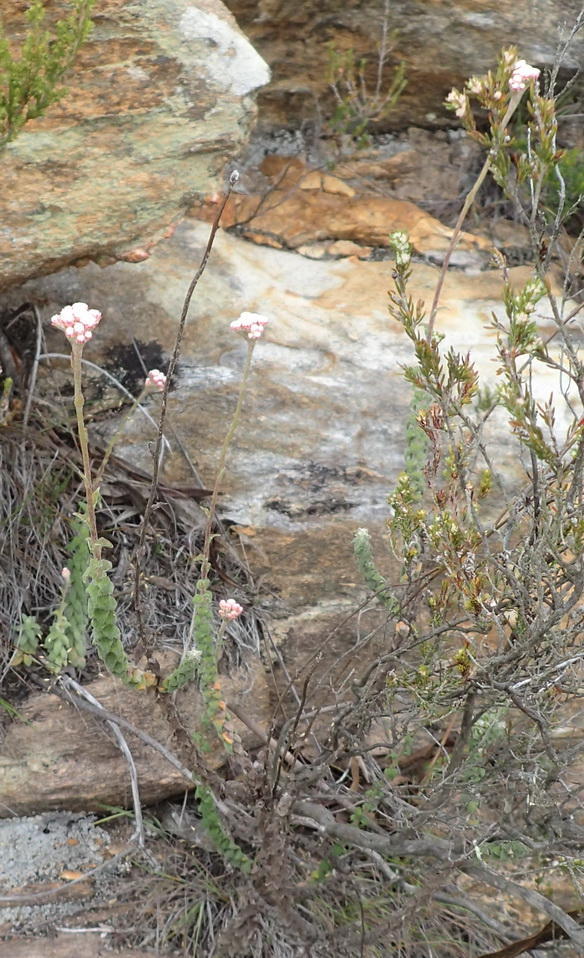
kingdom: Plantae
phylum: Tracheophyta
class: Magnoliopsida
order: Asterales
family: Asteraceae
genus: Helichrysum
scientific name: Helichrysum felinum
